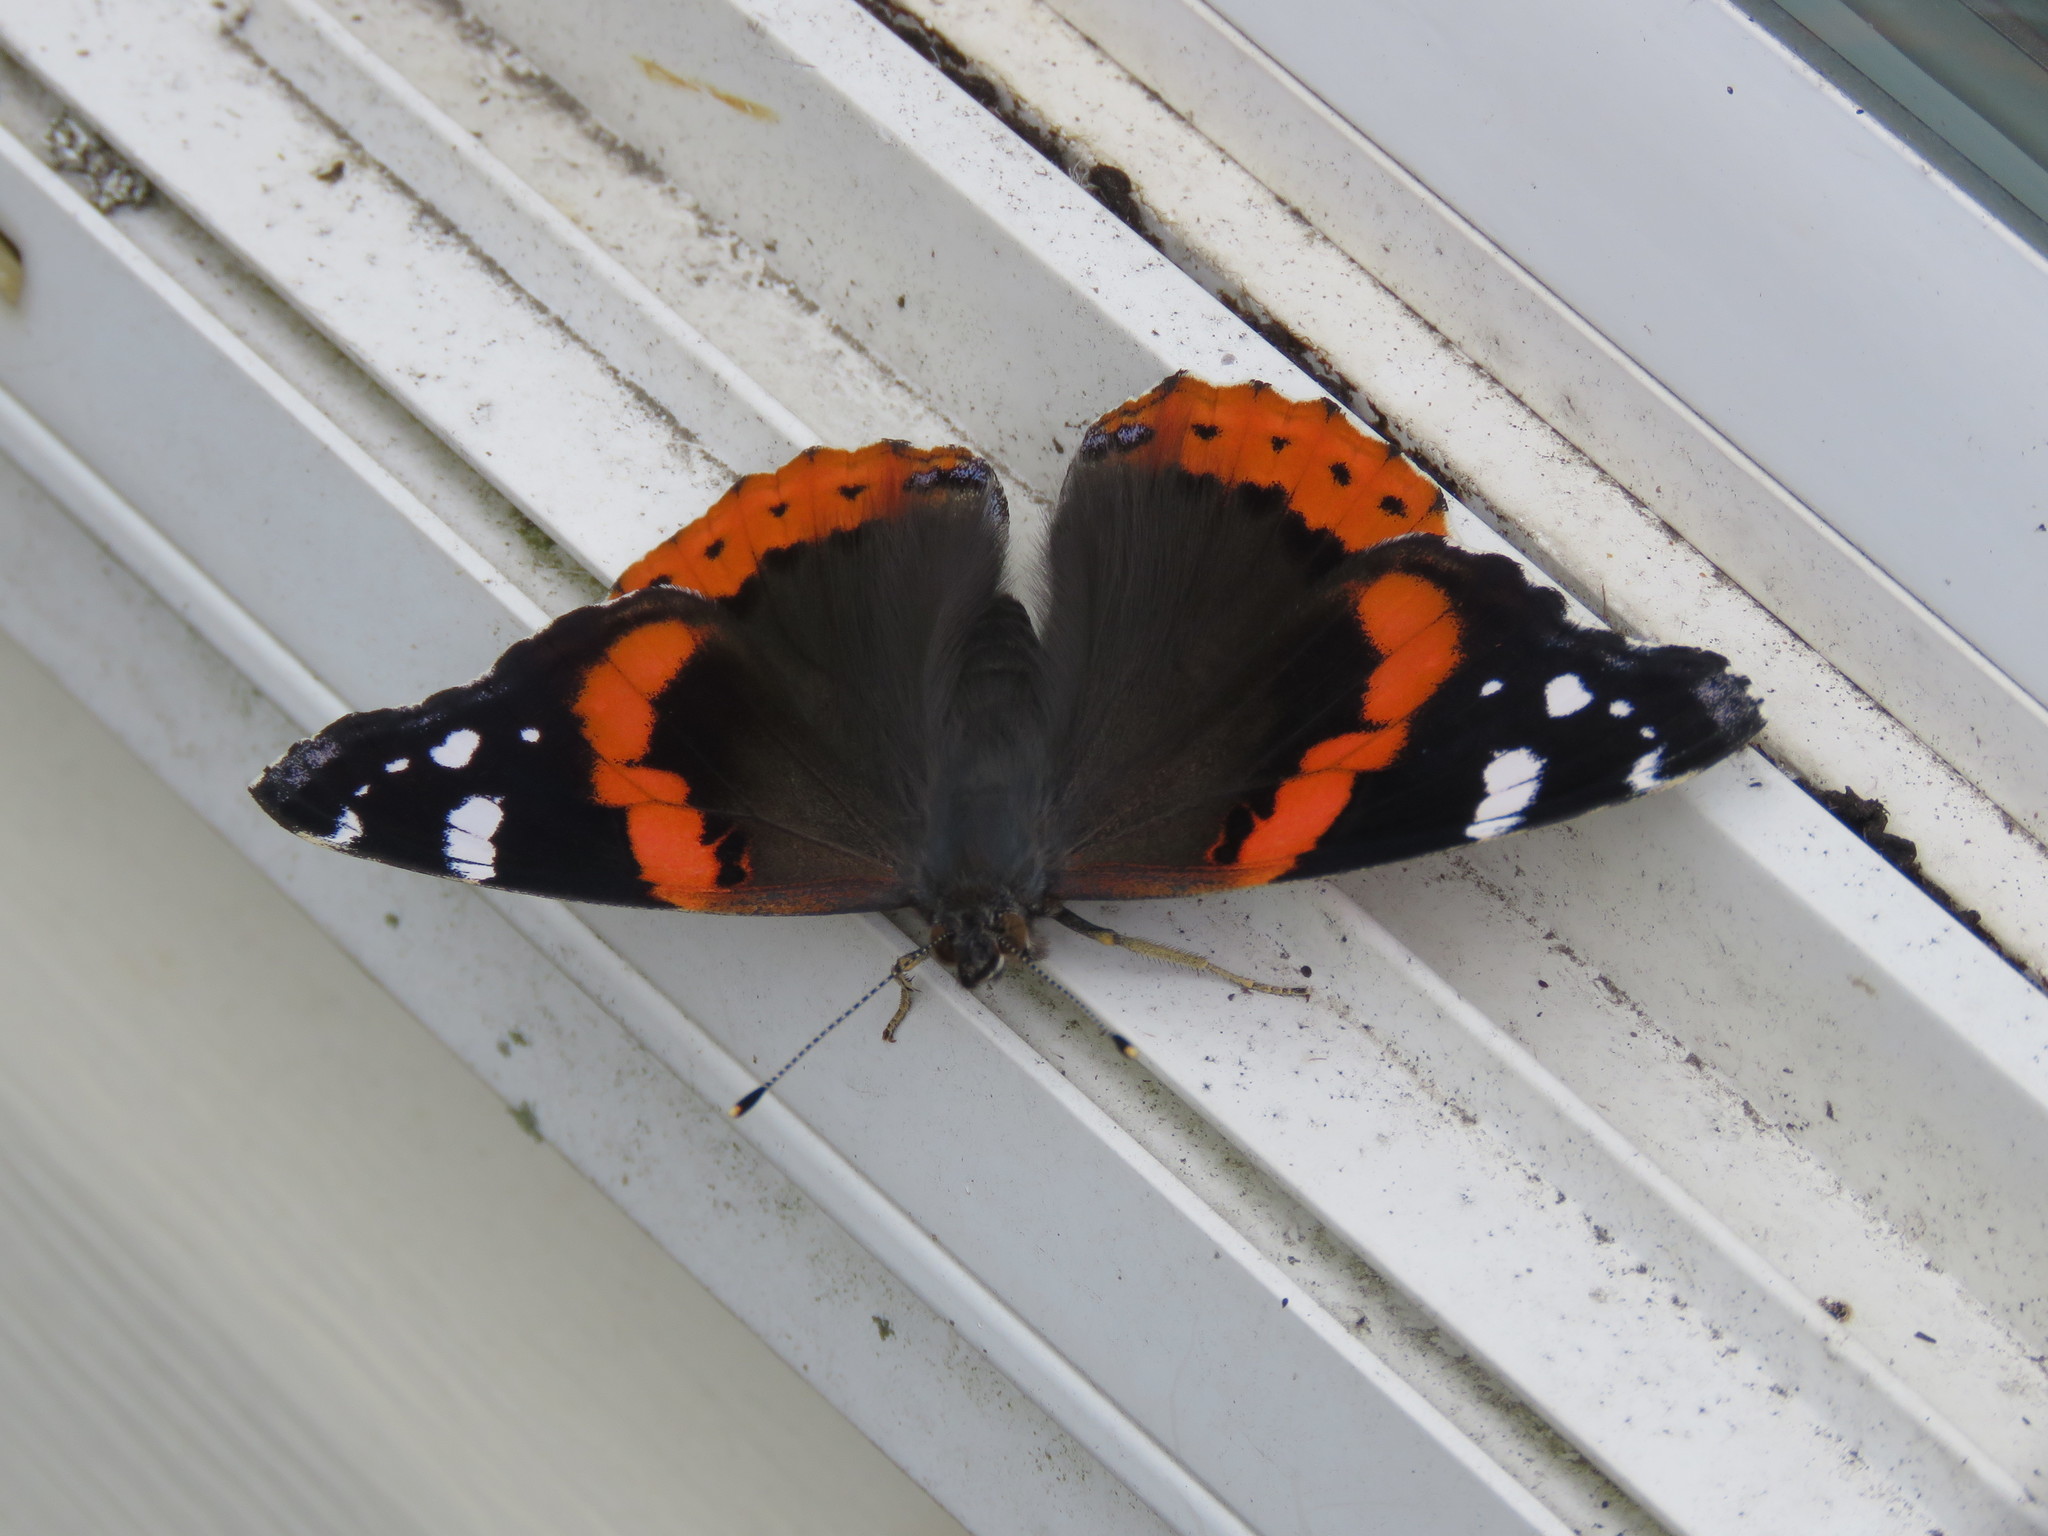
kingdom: Animalia
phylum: Arthropoda
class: Insecta
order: Lepidoptera
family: Nymphalidae
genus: Vanessa
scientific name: Vanessa atalanta
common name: Red admiral
